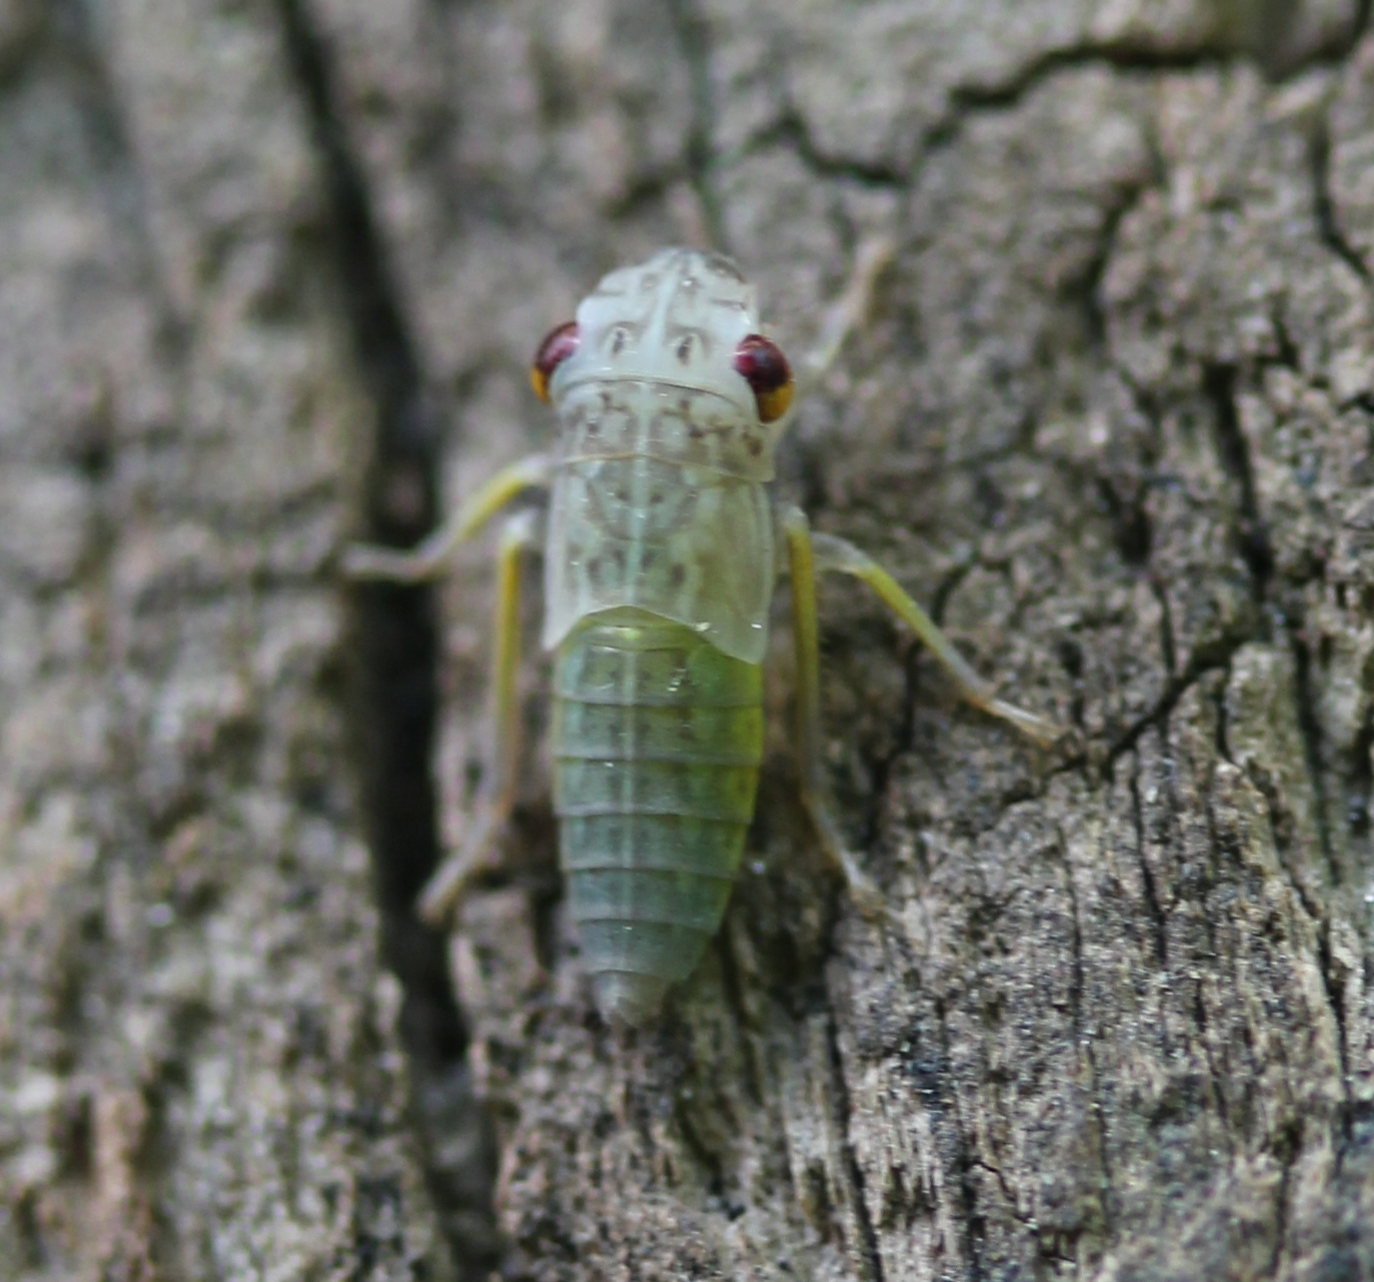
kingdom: Animalia
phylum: Arthropoda
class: Insecta
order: Hemiptera
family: Cicadellidae
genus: Oncometopia
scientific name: Oncometopia orbona
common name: Broad-headed sharpshooter
